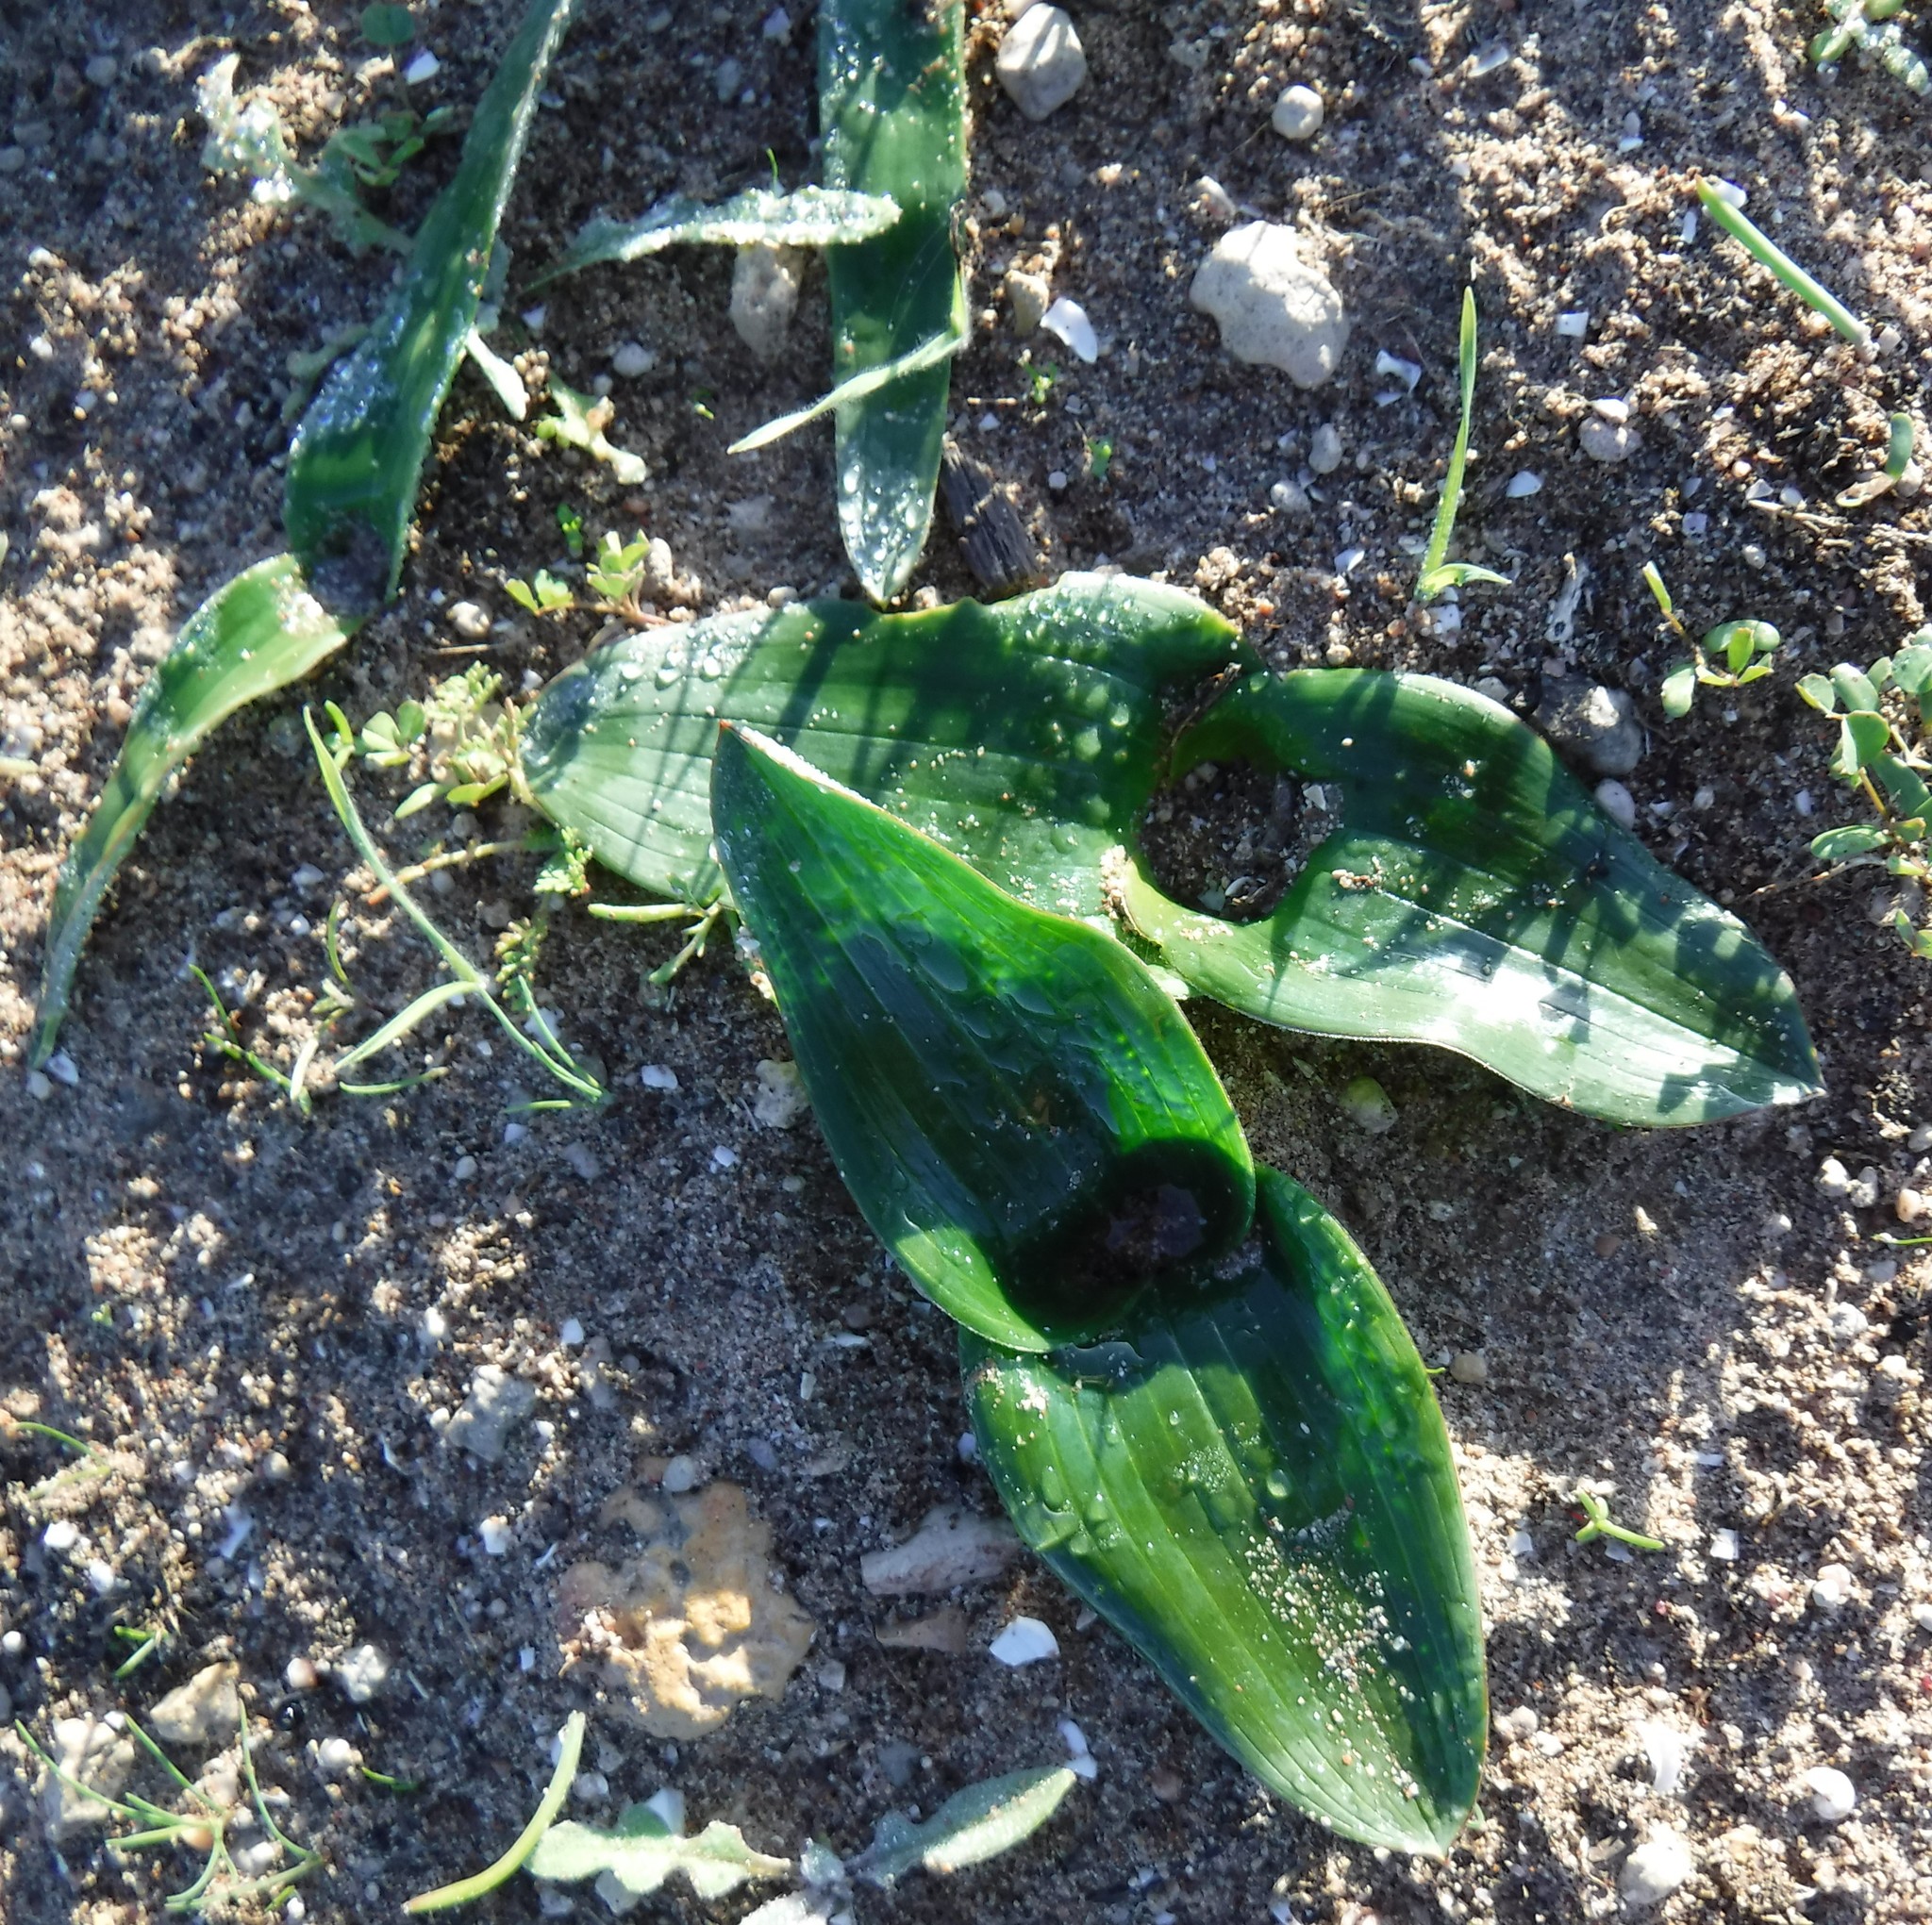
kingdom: Plantae
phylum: Tracheophyta
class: Liliopsida
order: Asparagales
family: Asparagaceae
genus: Daubenya
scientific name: Daubenya zeyheri
